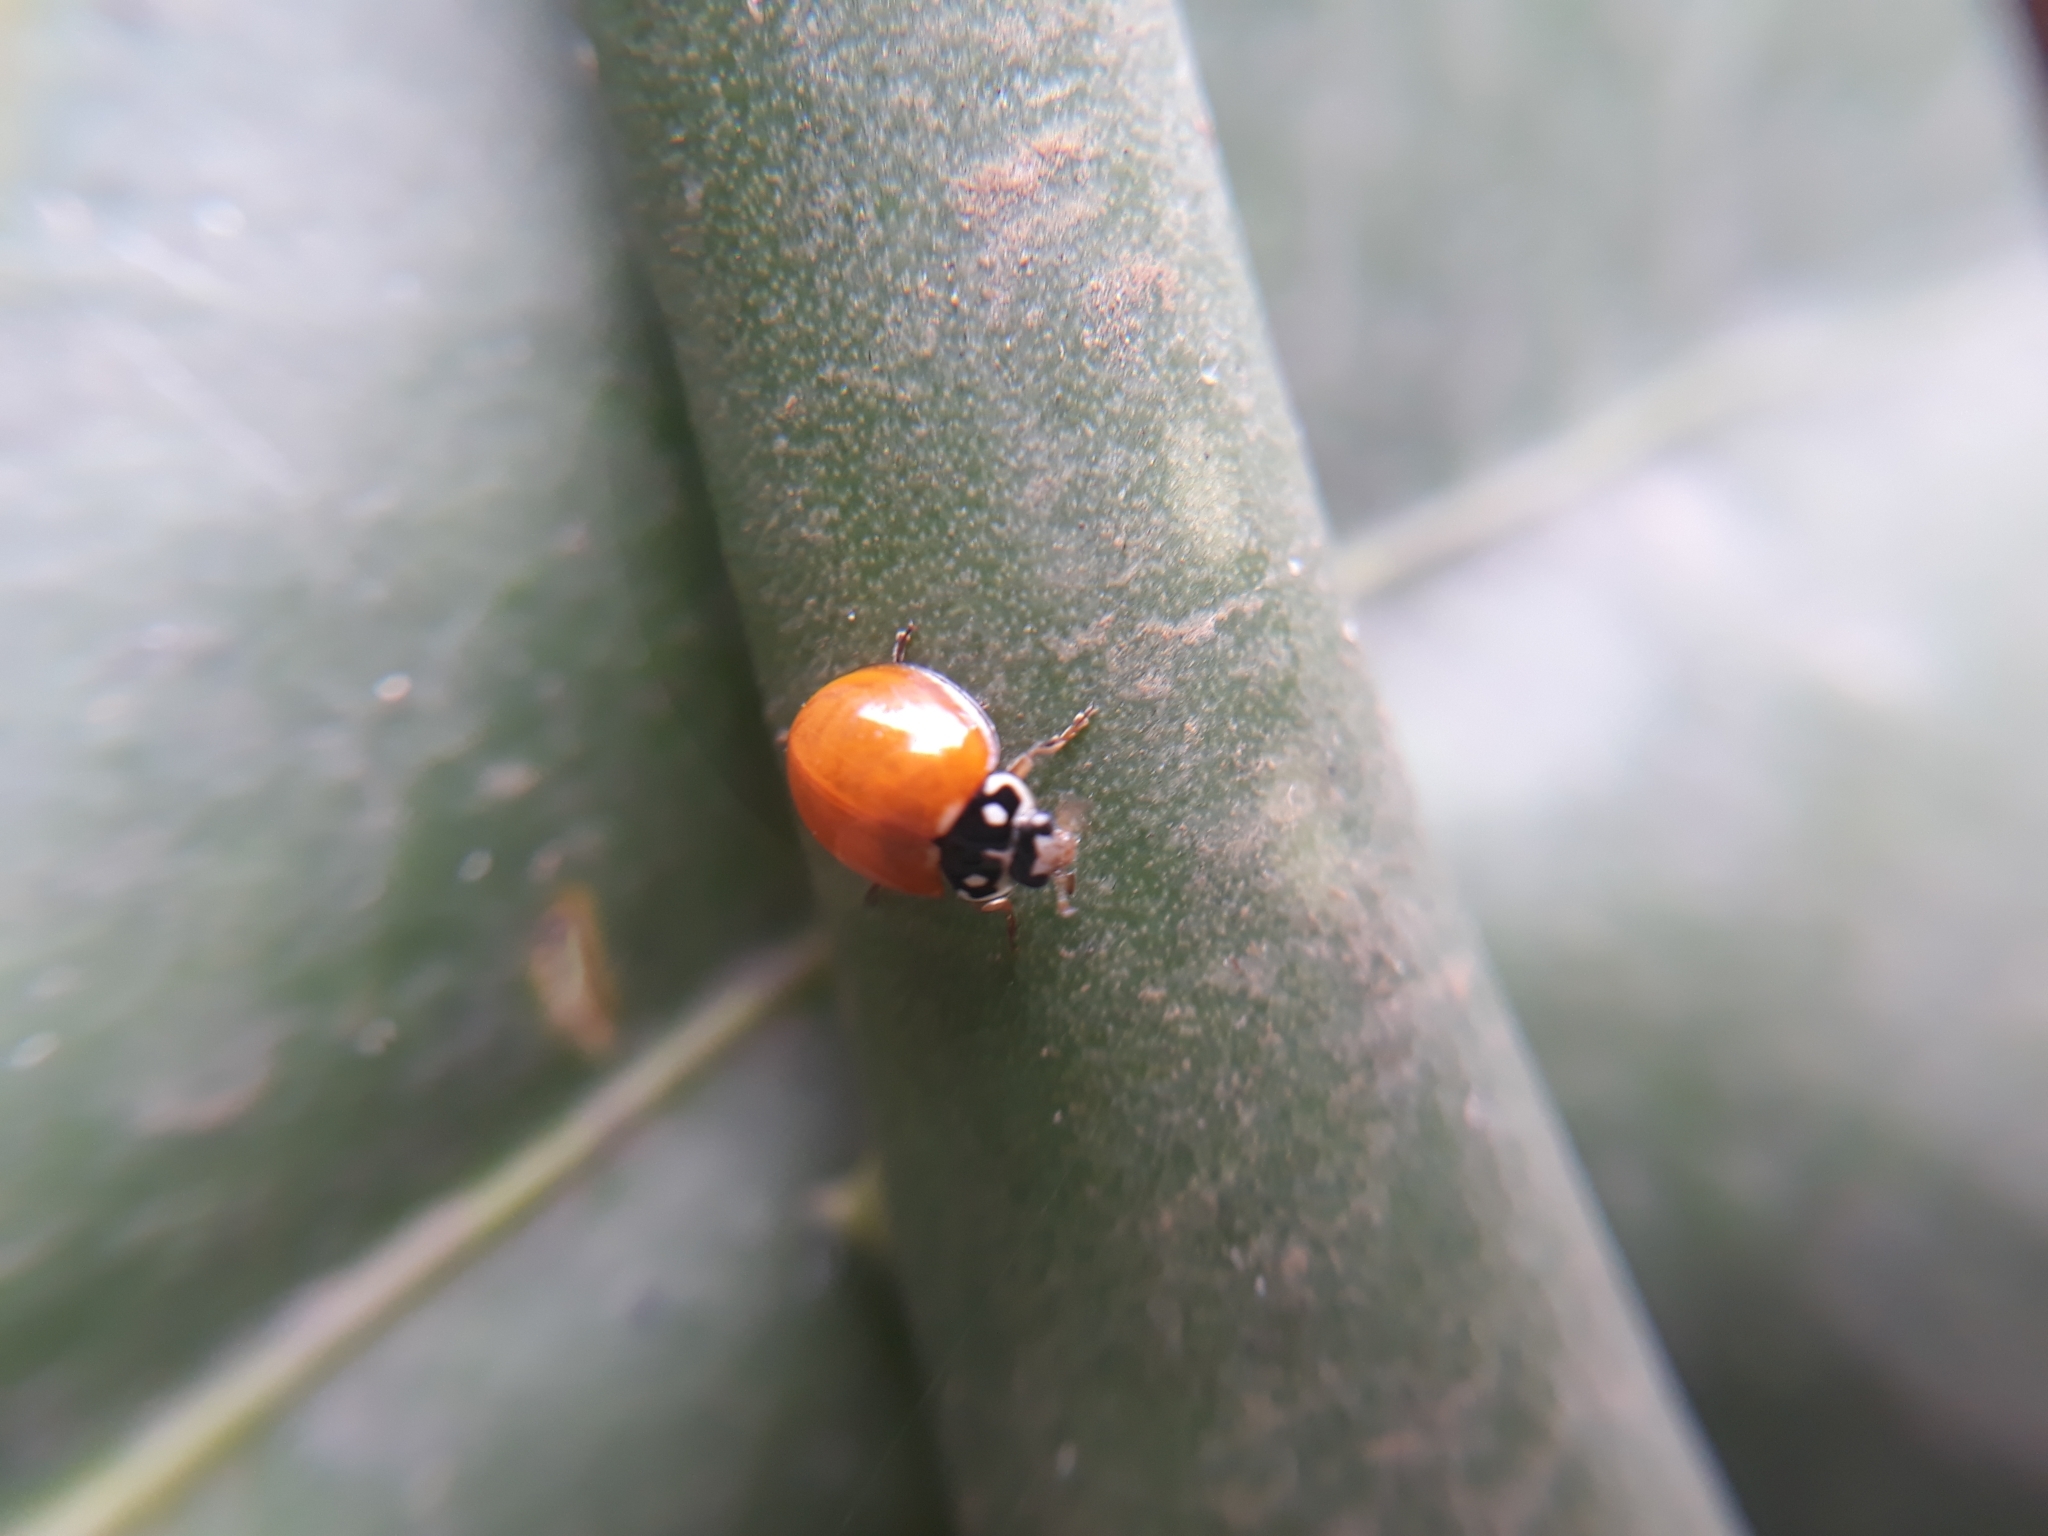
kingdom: Animalia
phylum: Arthropoda
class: Insecta
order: Coleoptera
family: Coccinellidae
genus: Cycloneda
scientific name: Cycloneda sanguinea
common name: Ladybird beetle
